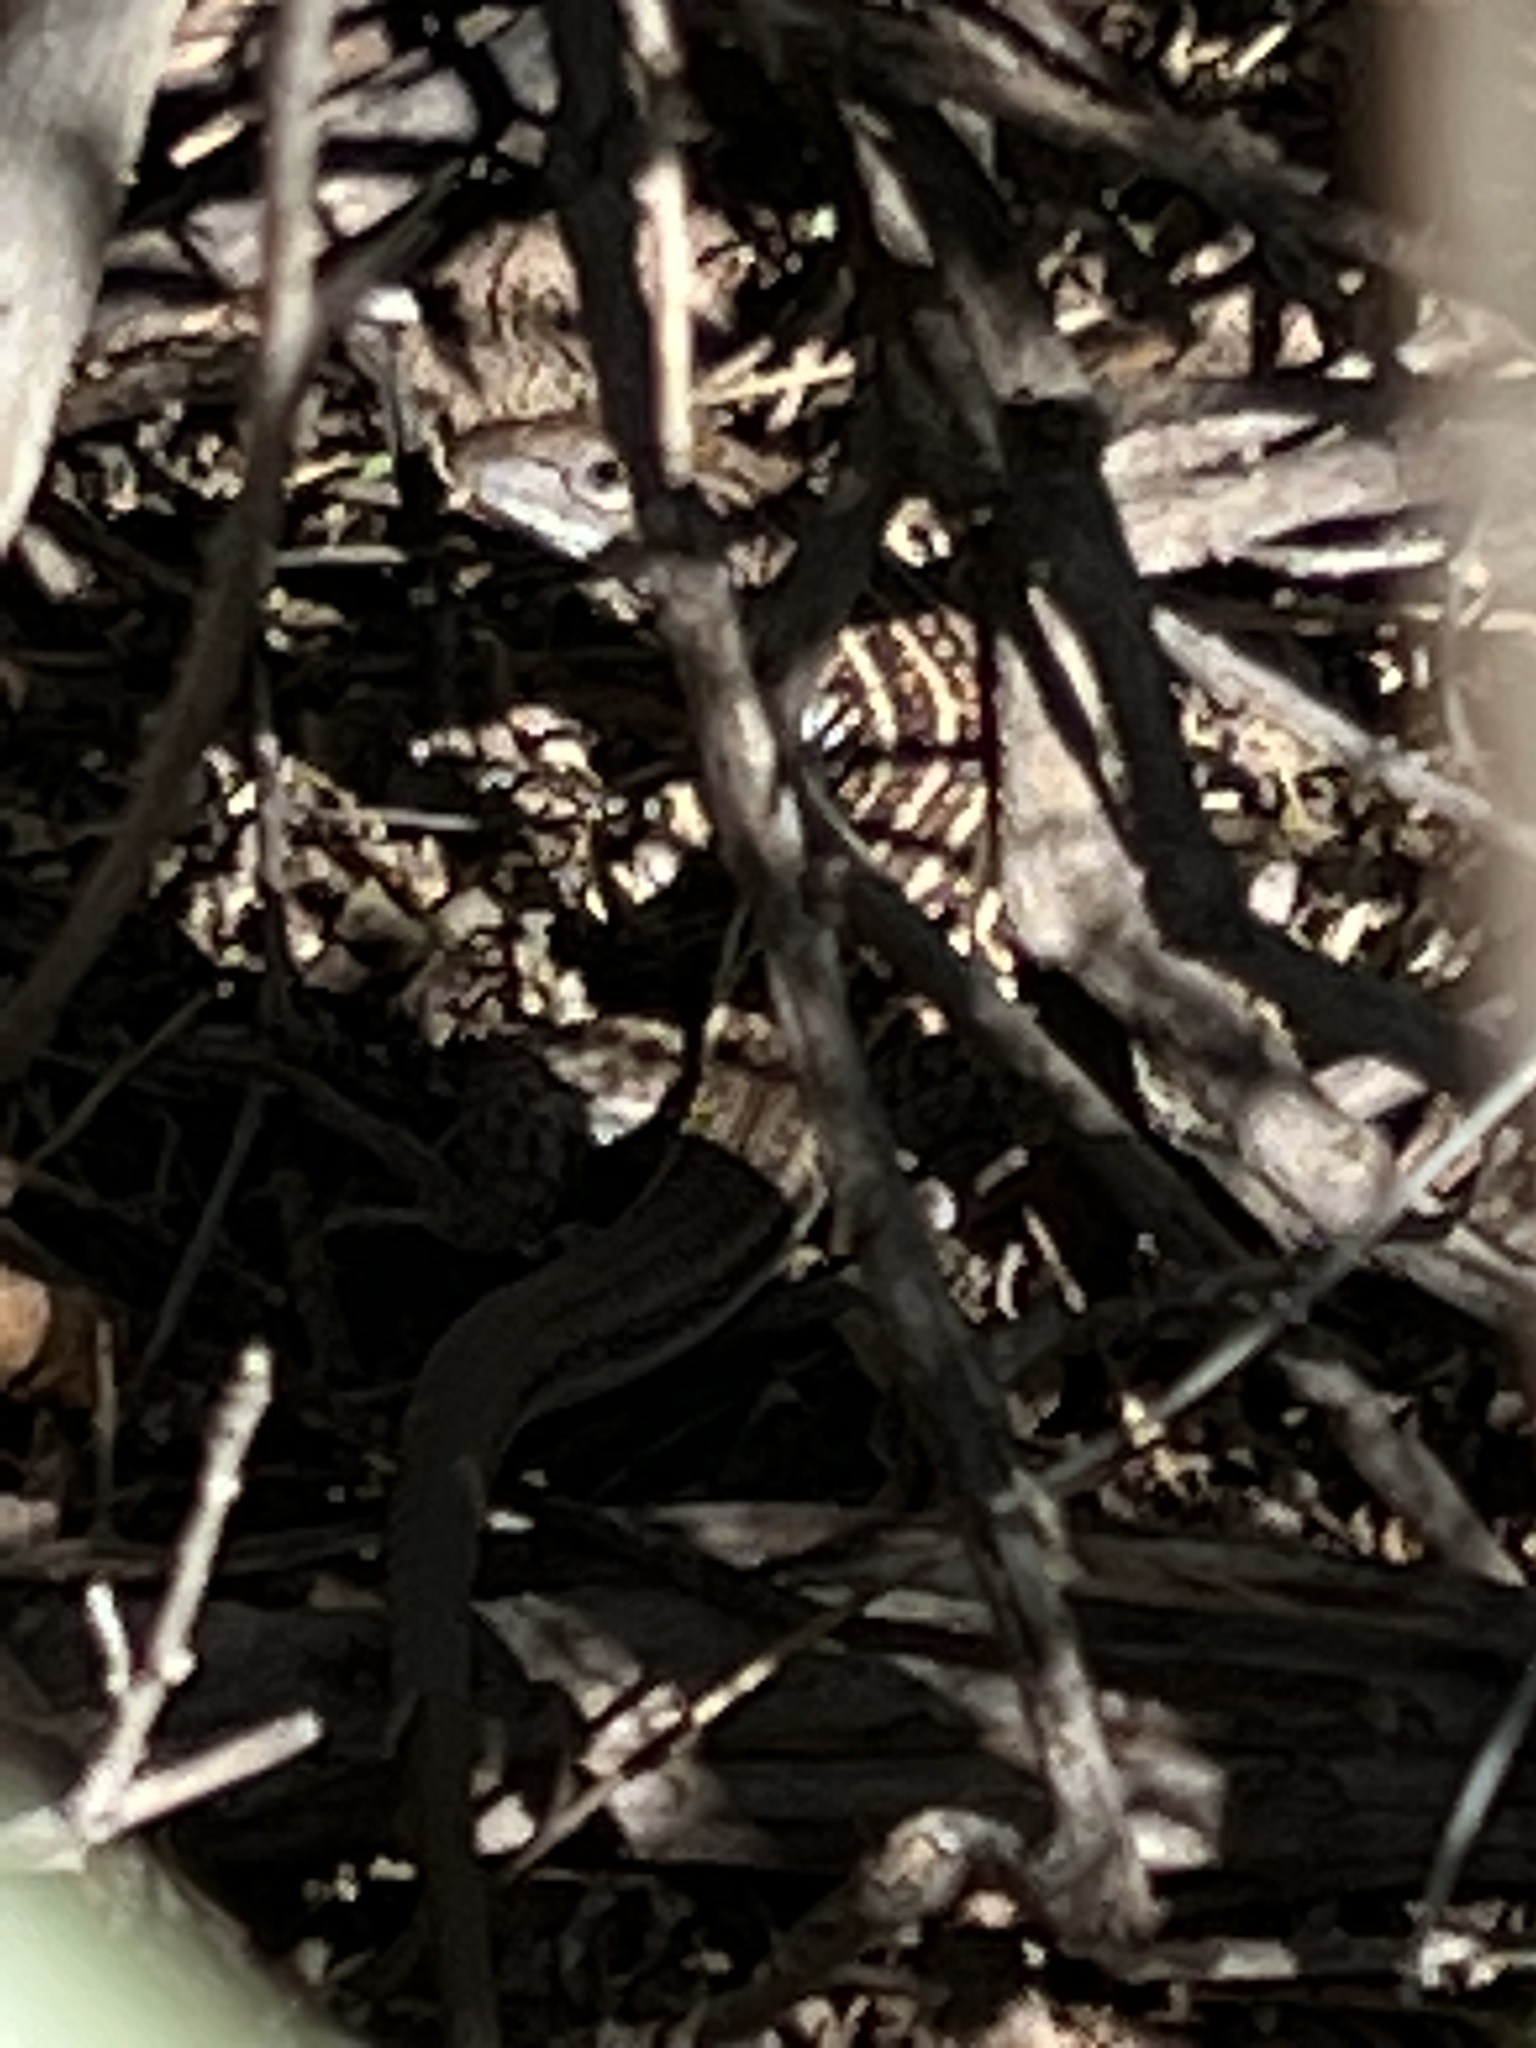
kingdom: Animalia
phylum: Chordata
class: Squamata
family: Teiidae
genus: Aspidoscelis
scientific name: Aspidoscelis exsanguis
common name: Chihuahuan spotted whiptail
